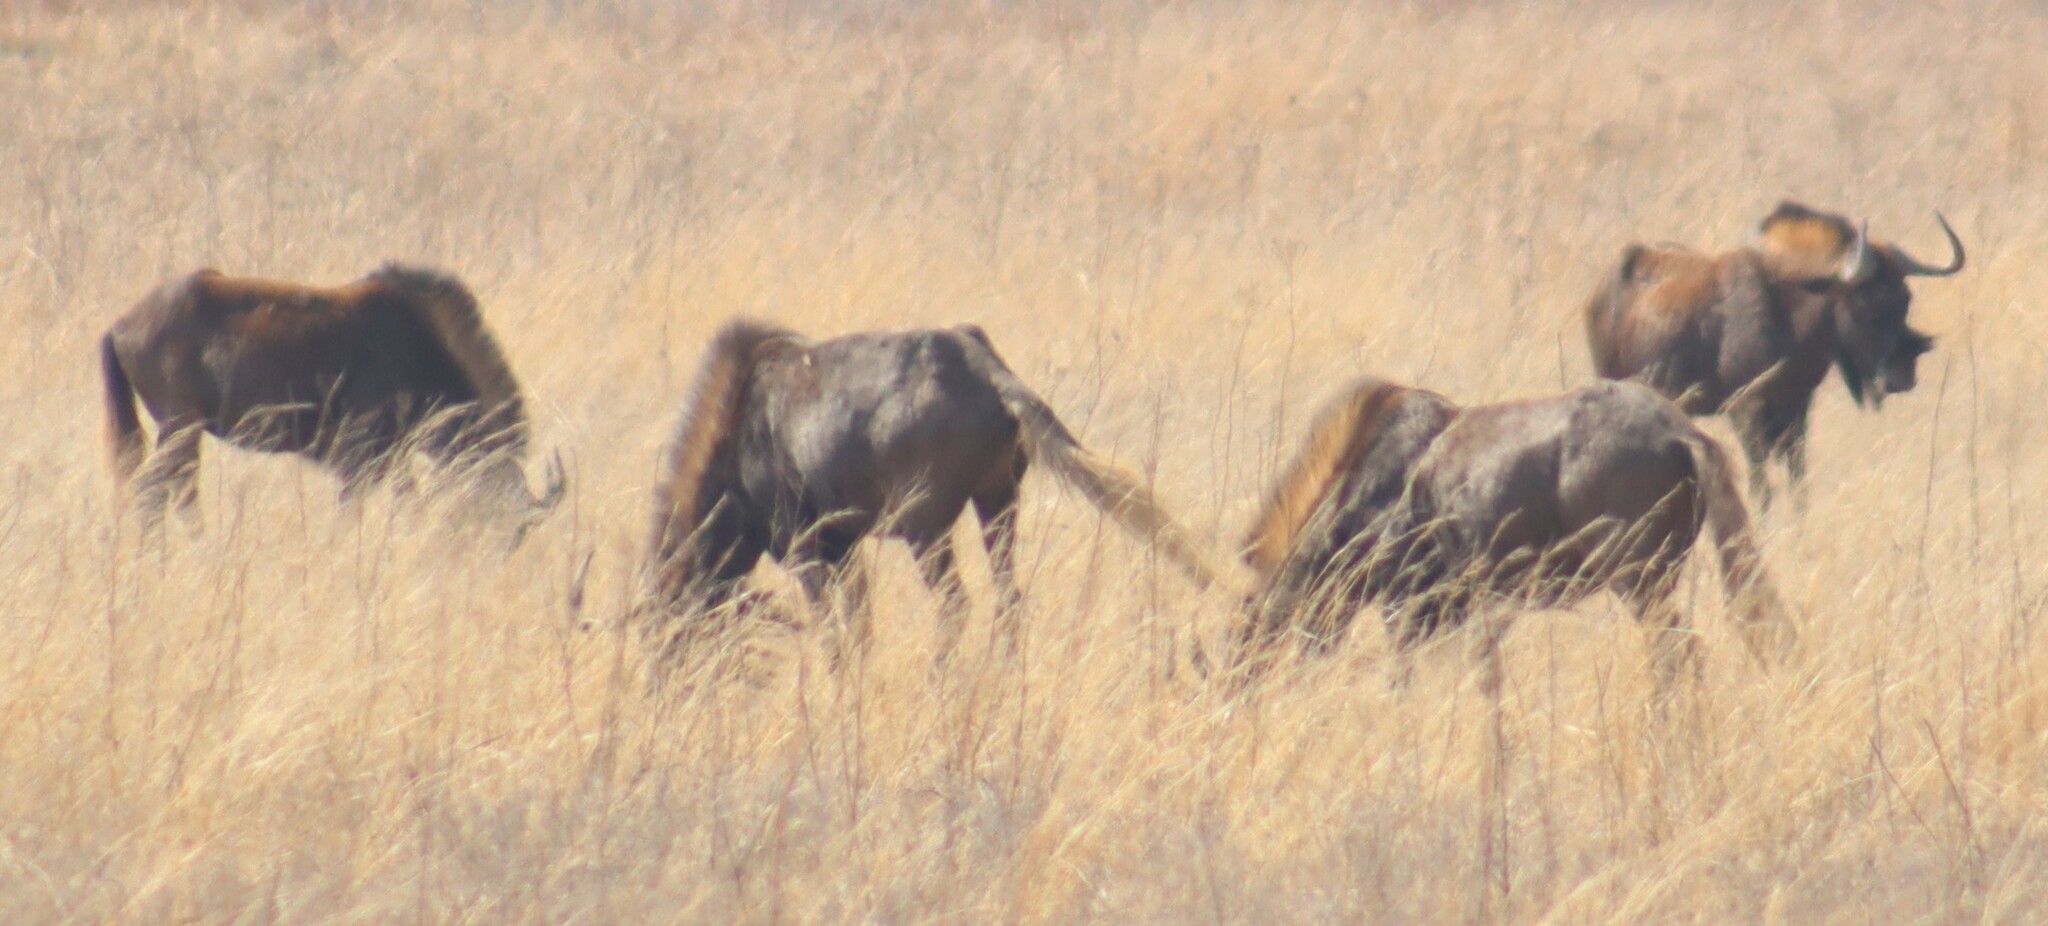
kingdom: Animalia
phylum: Chordata
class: Mammalia
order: Artiodactyla
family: Bovidae
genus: Connochaetes
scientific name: Connochaetes gnou
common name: Black wildebeest
